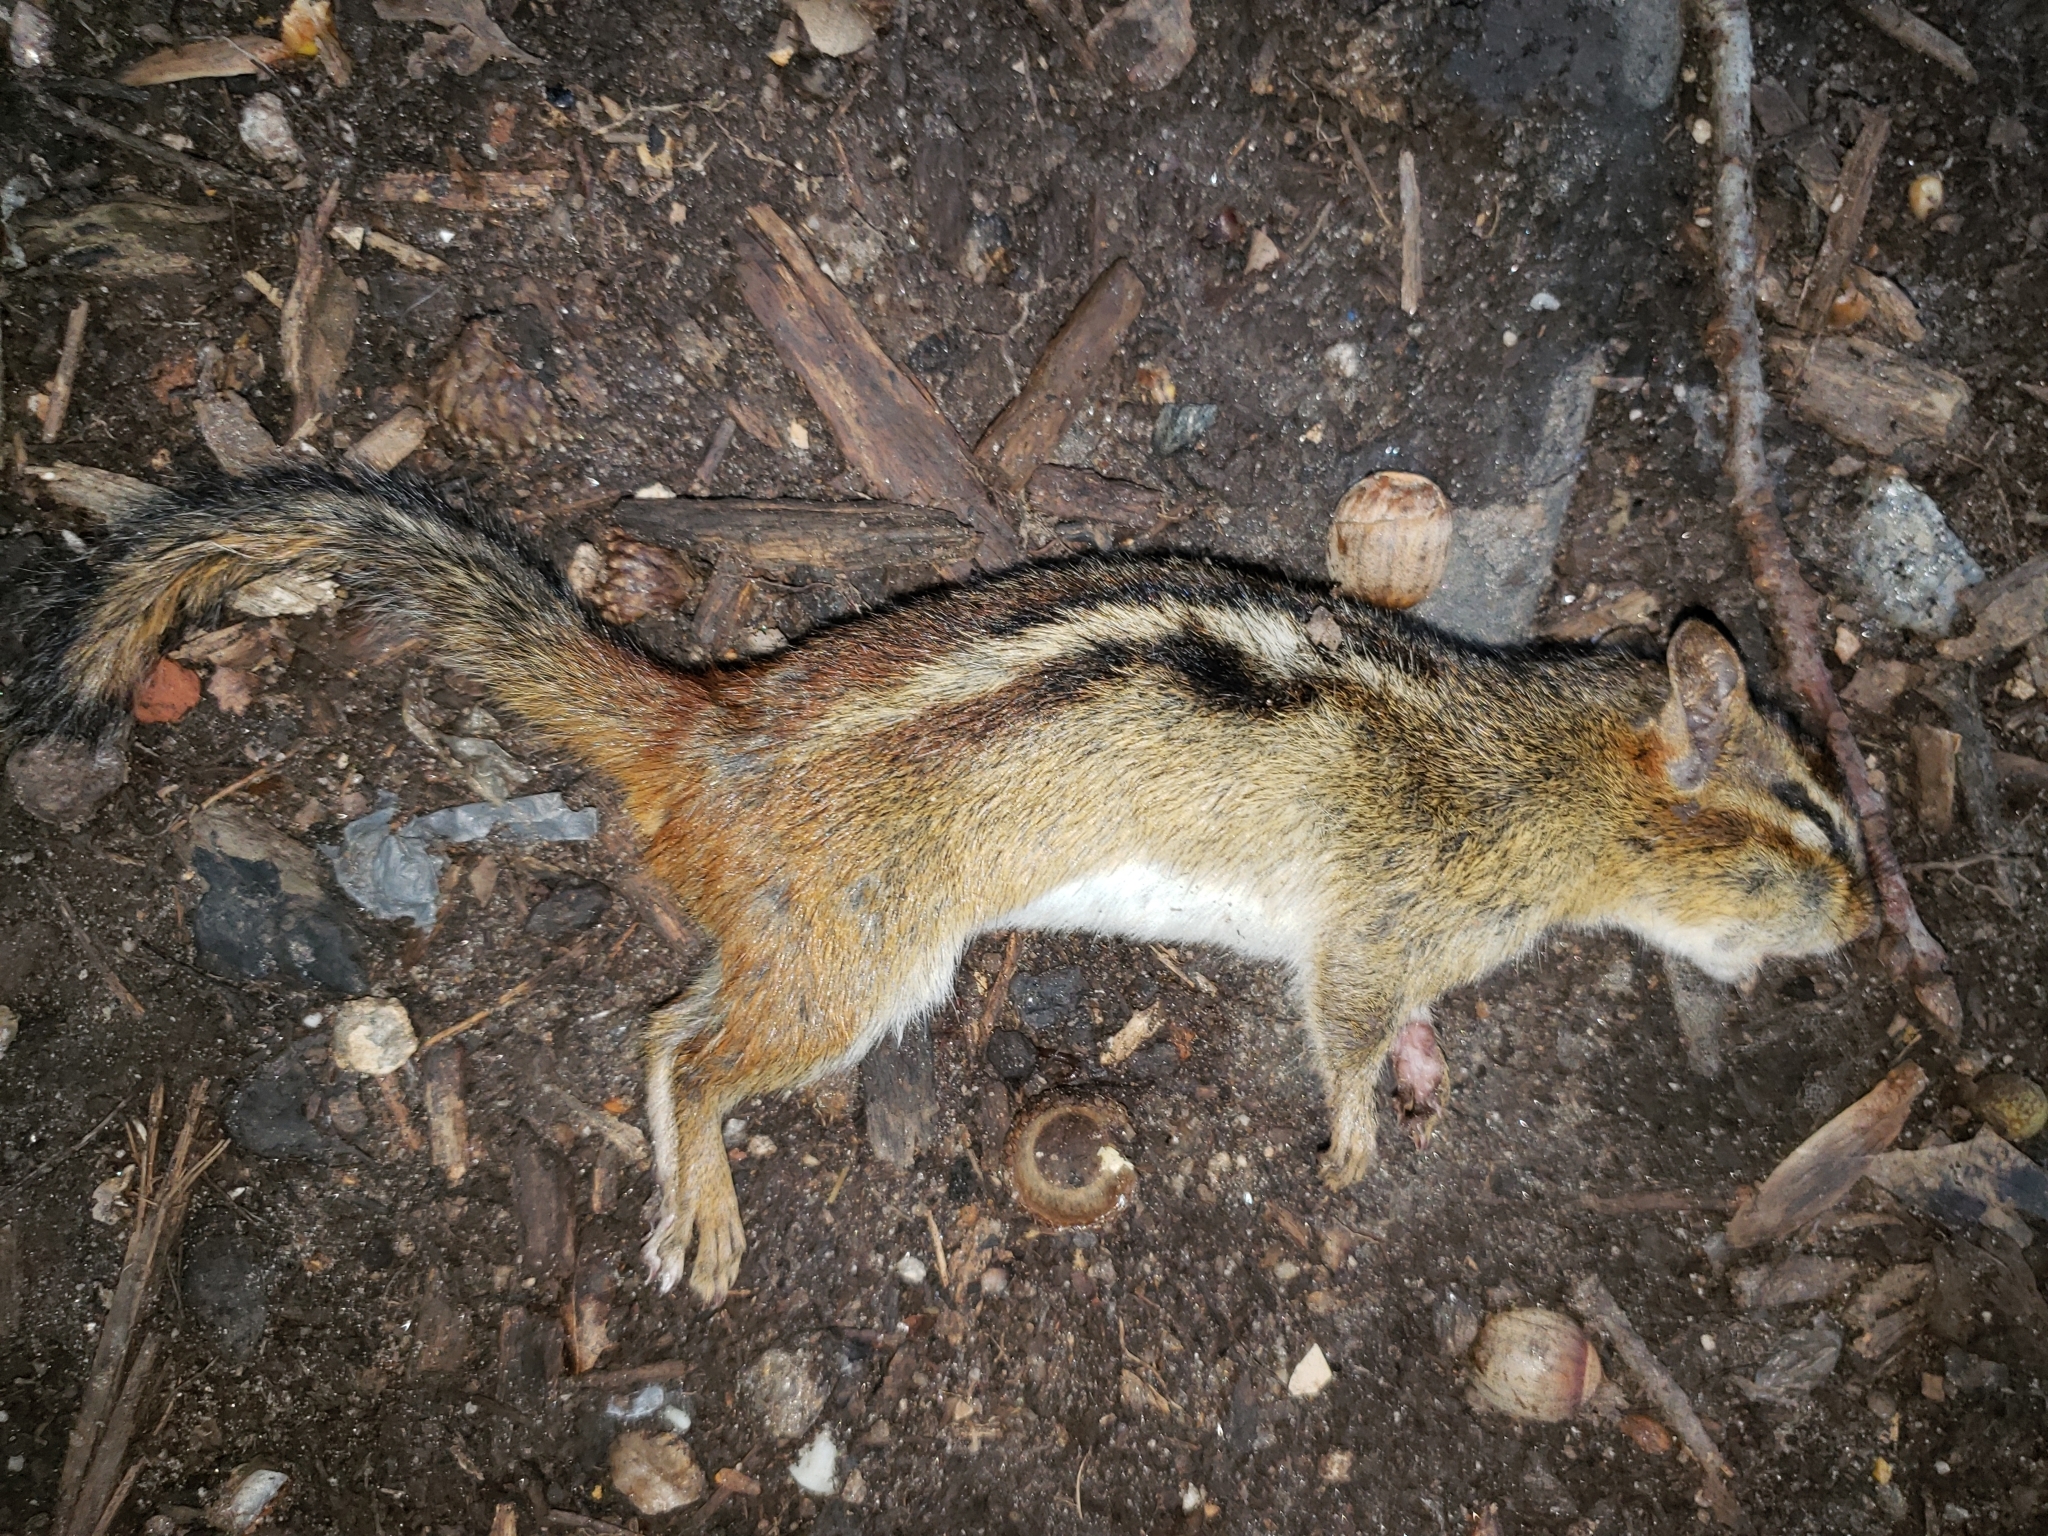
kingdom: Animalia
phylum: Chordata
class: Mammalia
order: Rodentia
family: Sciuridae
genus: Tamias
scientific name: Tamias striatus
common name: Eastern chipmunk
